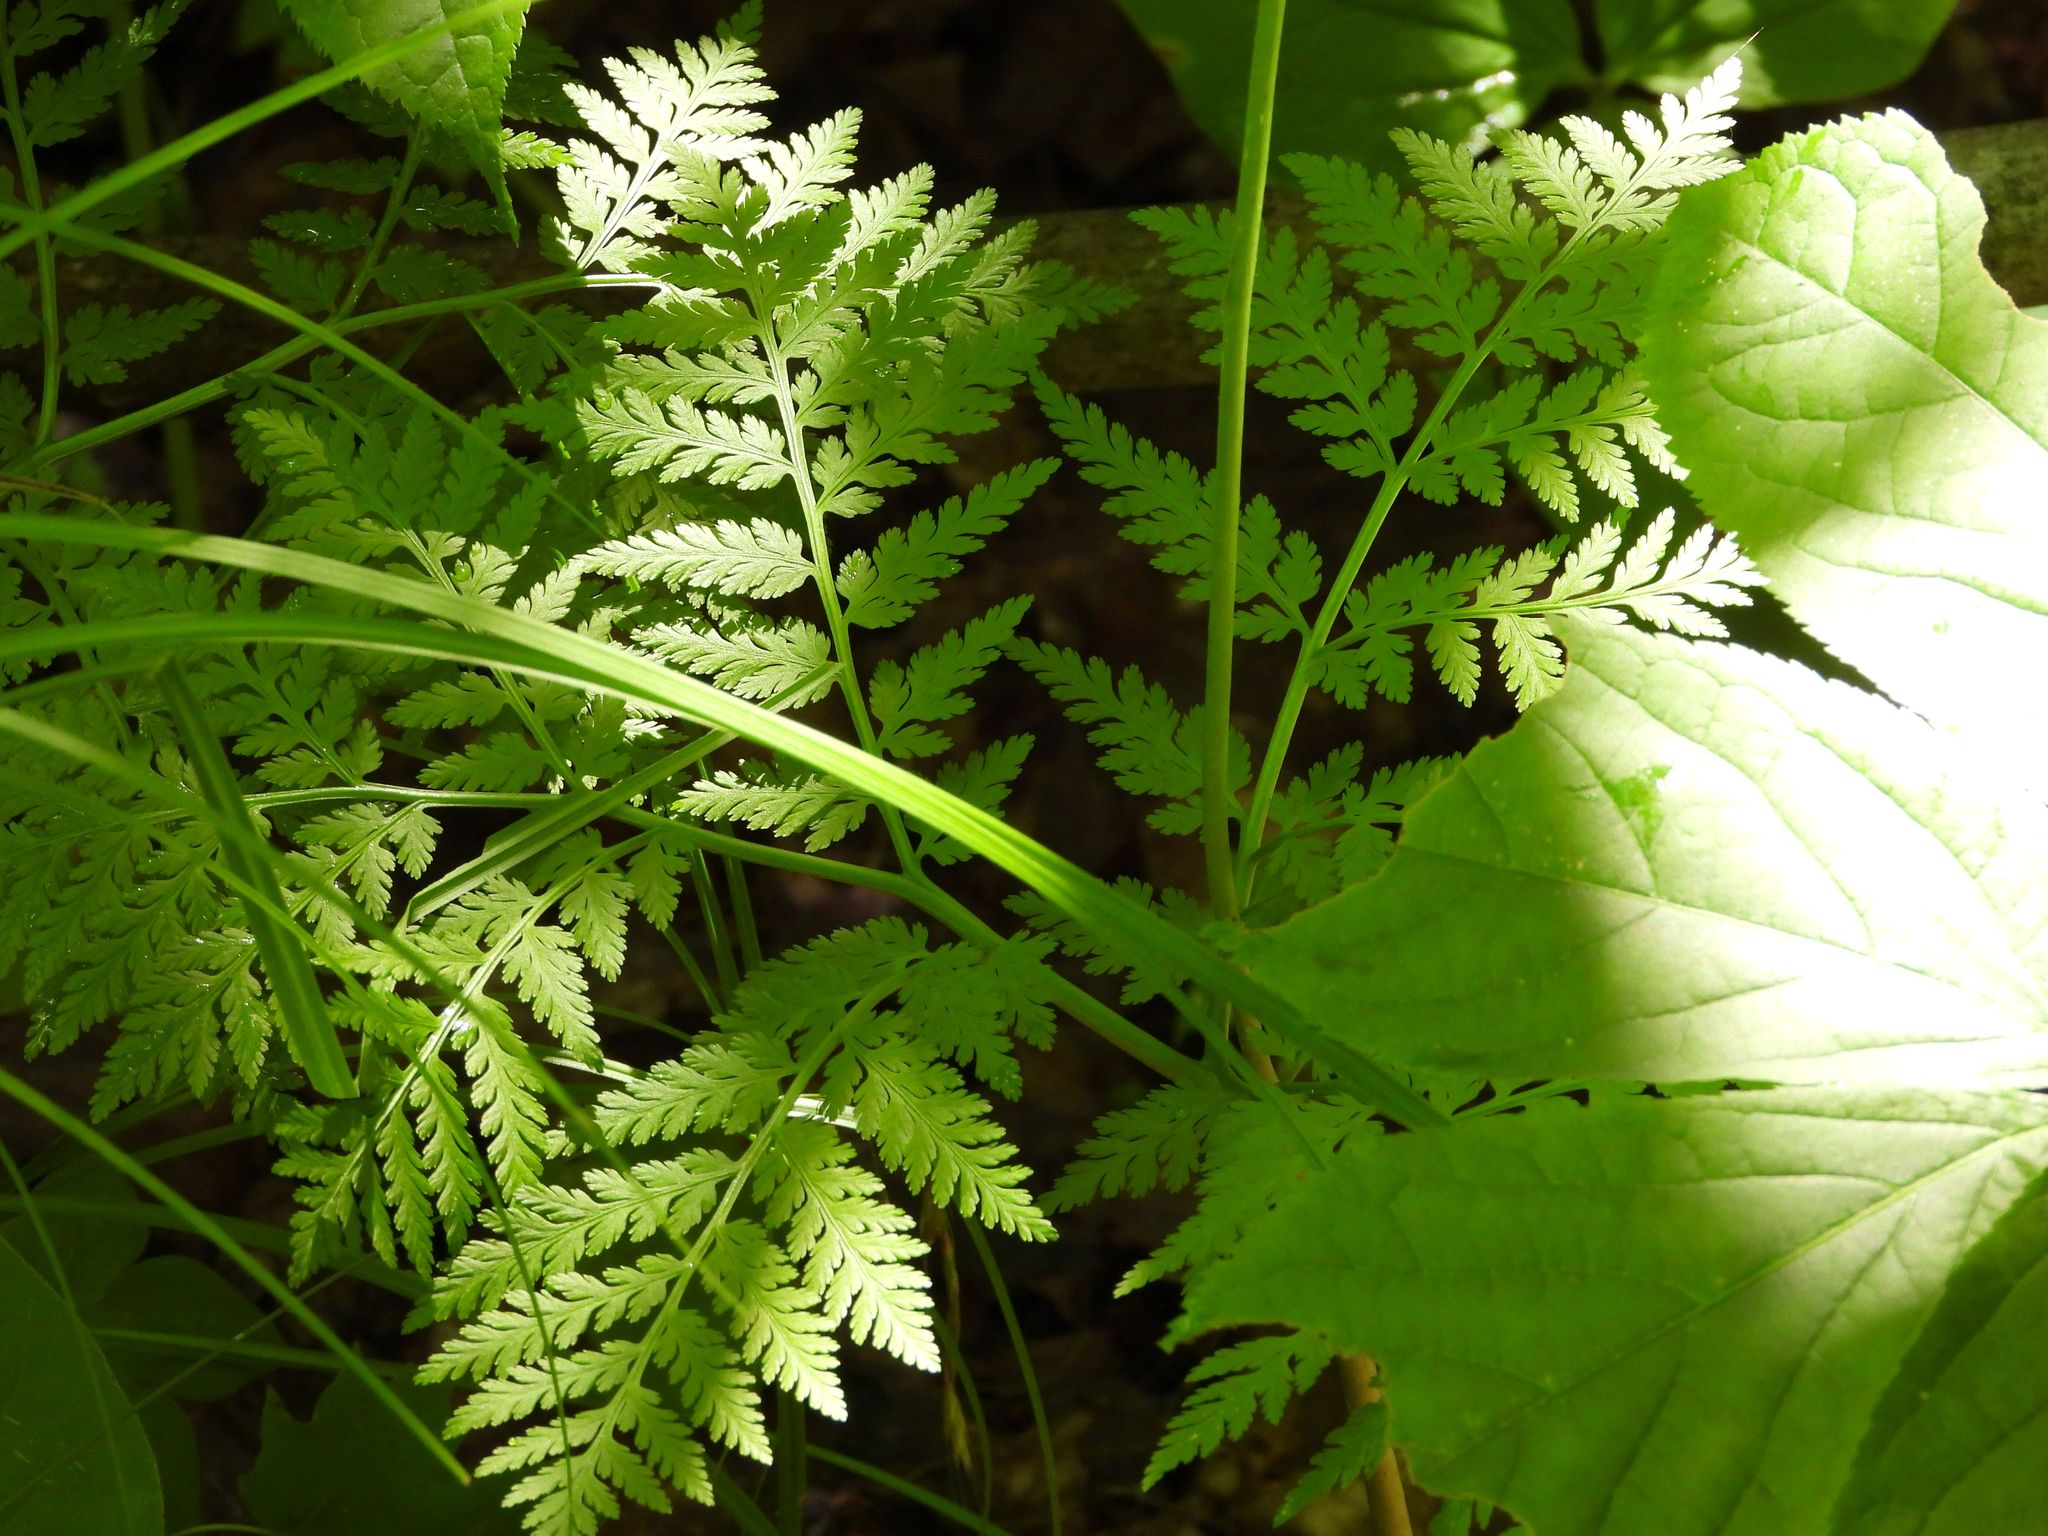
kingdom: Plantae
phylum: Tracheophyta
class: Polypodiopsida
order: Ophioglossales
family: Ophioglossaceae
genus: Botrypus
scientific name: Botrypus virginianus
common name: Common grapefern
